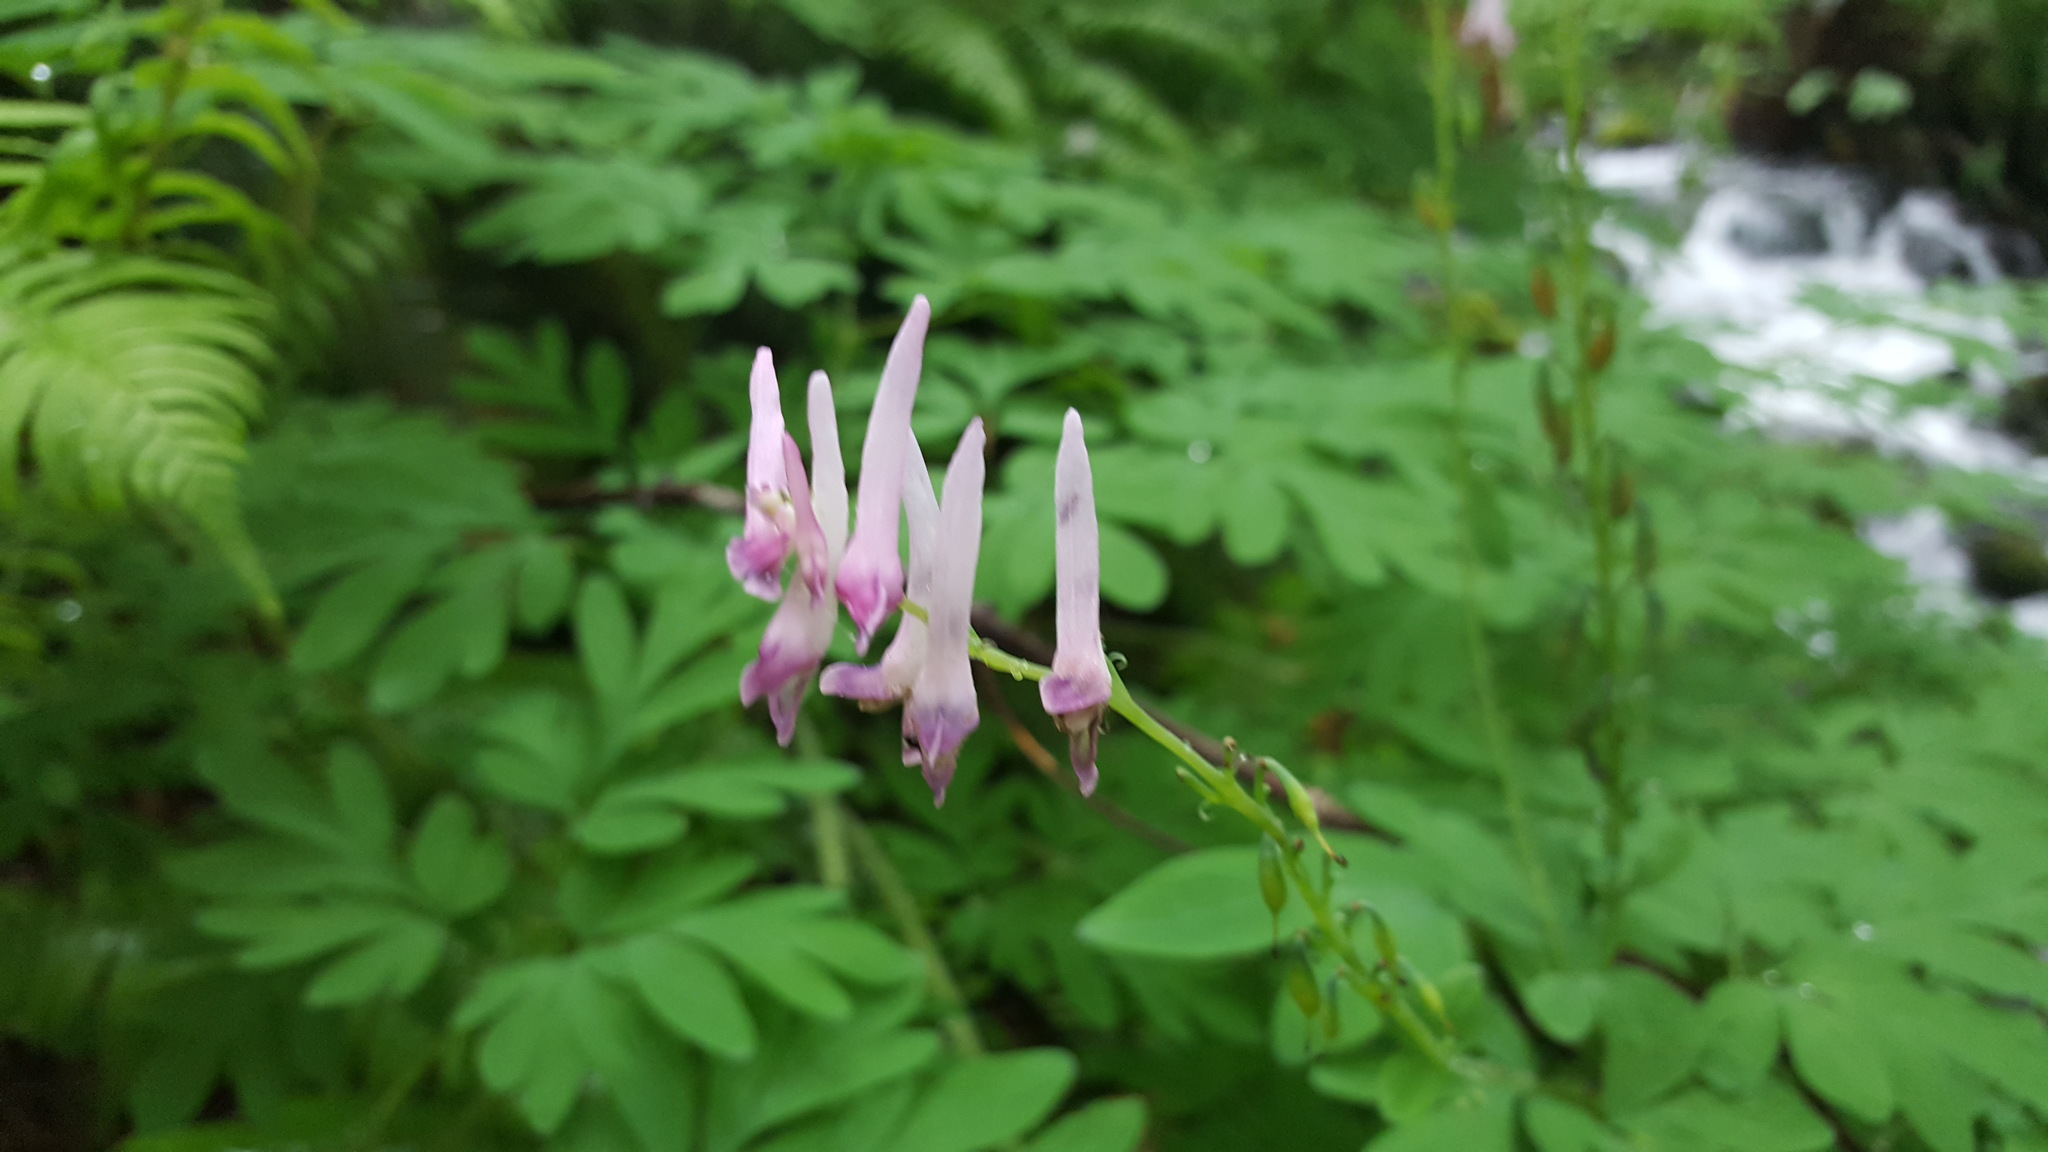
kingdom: Plantae
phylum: Tracheophyta
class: Magnoliopsida
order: Ranunculales
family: Papaveraceae
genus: Corydalis
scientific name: Corydalis scouleri
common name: Scouler's corydalis
